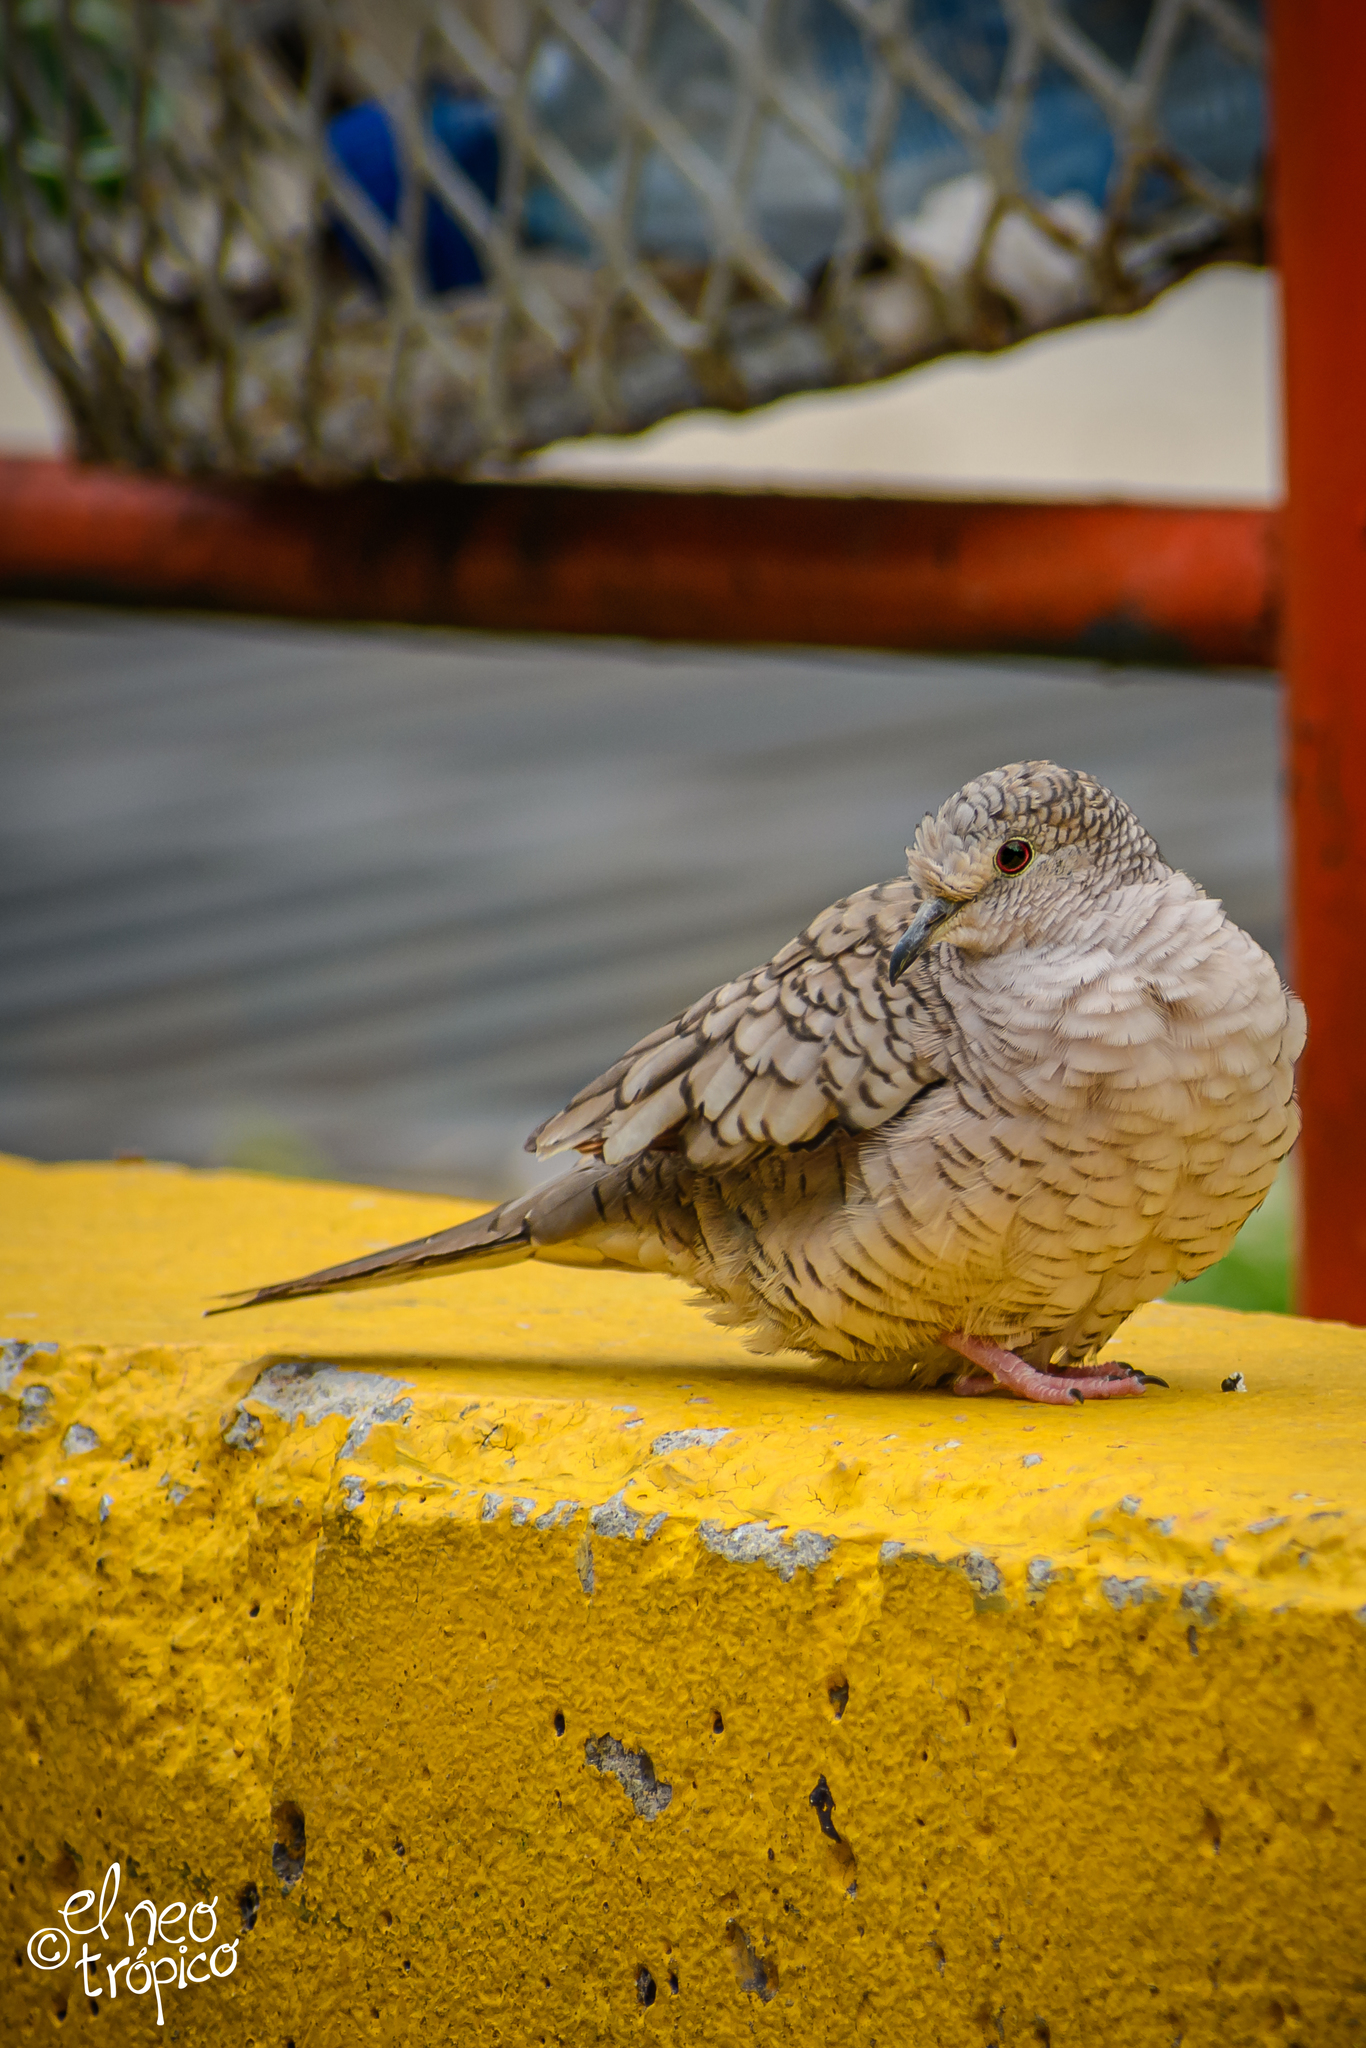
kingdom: Animalia
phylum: Chordata
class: Aves
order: Columbiformes
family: Columbidae
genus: Columbina
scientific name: Columbina inca
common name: Inca dove
